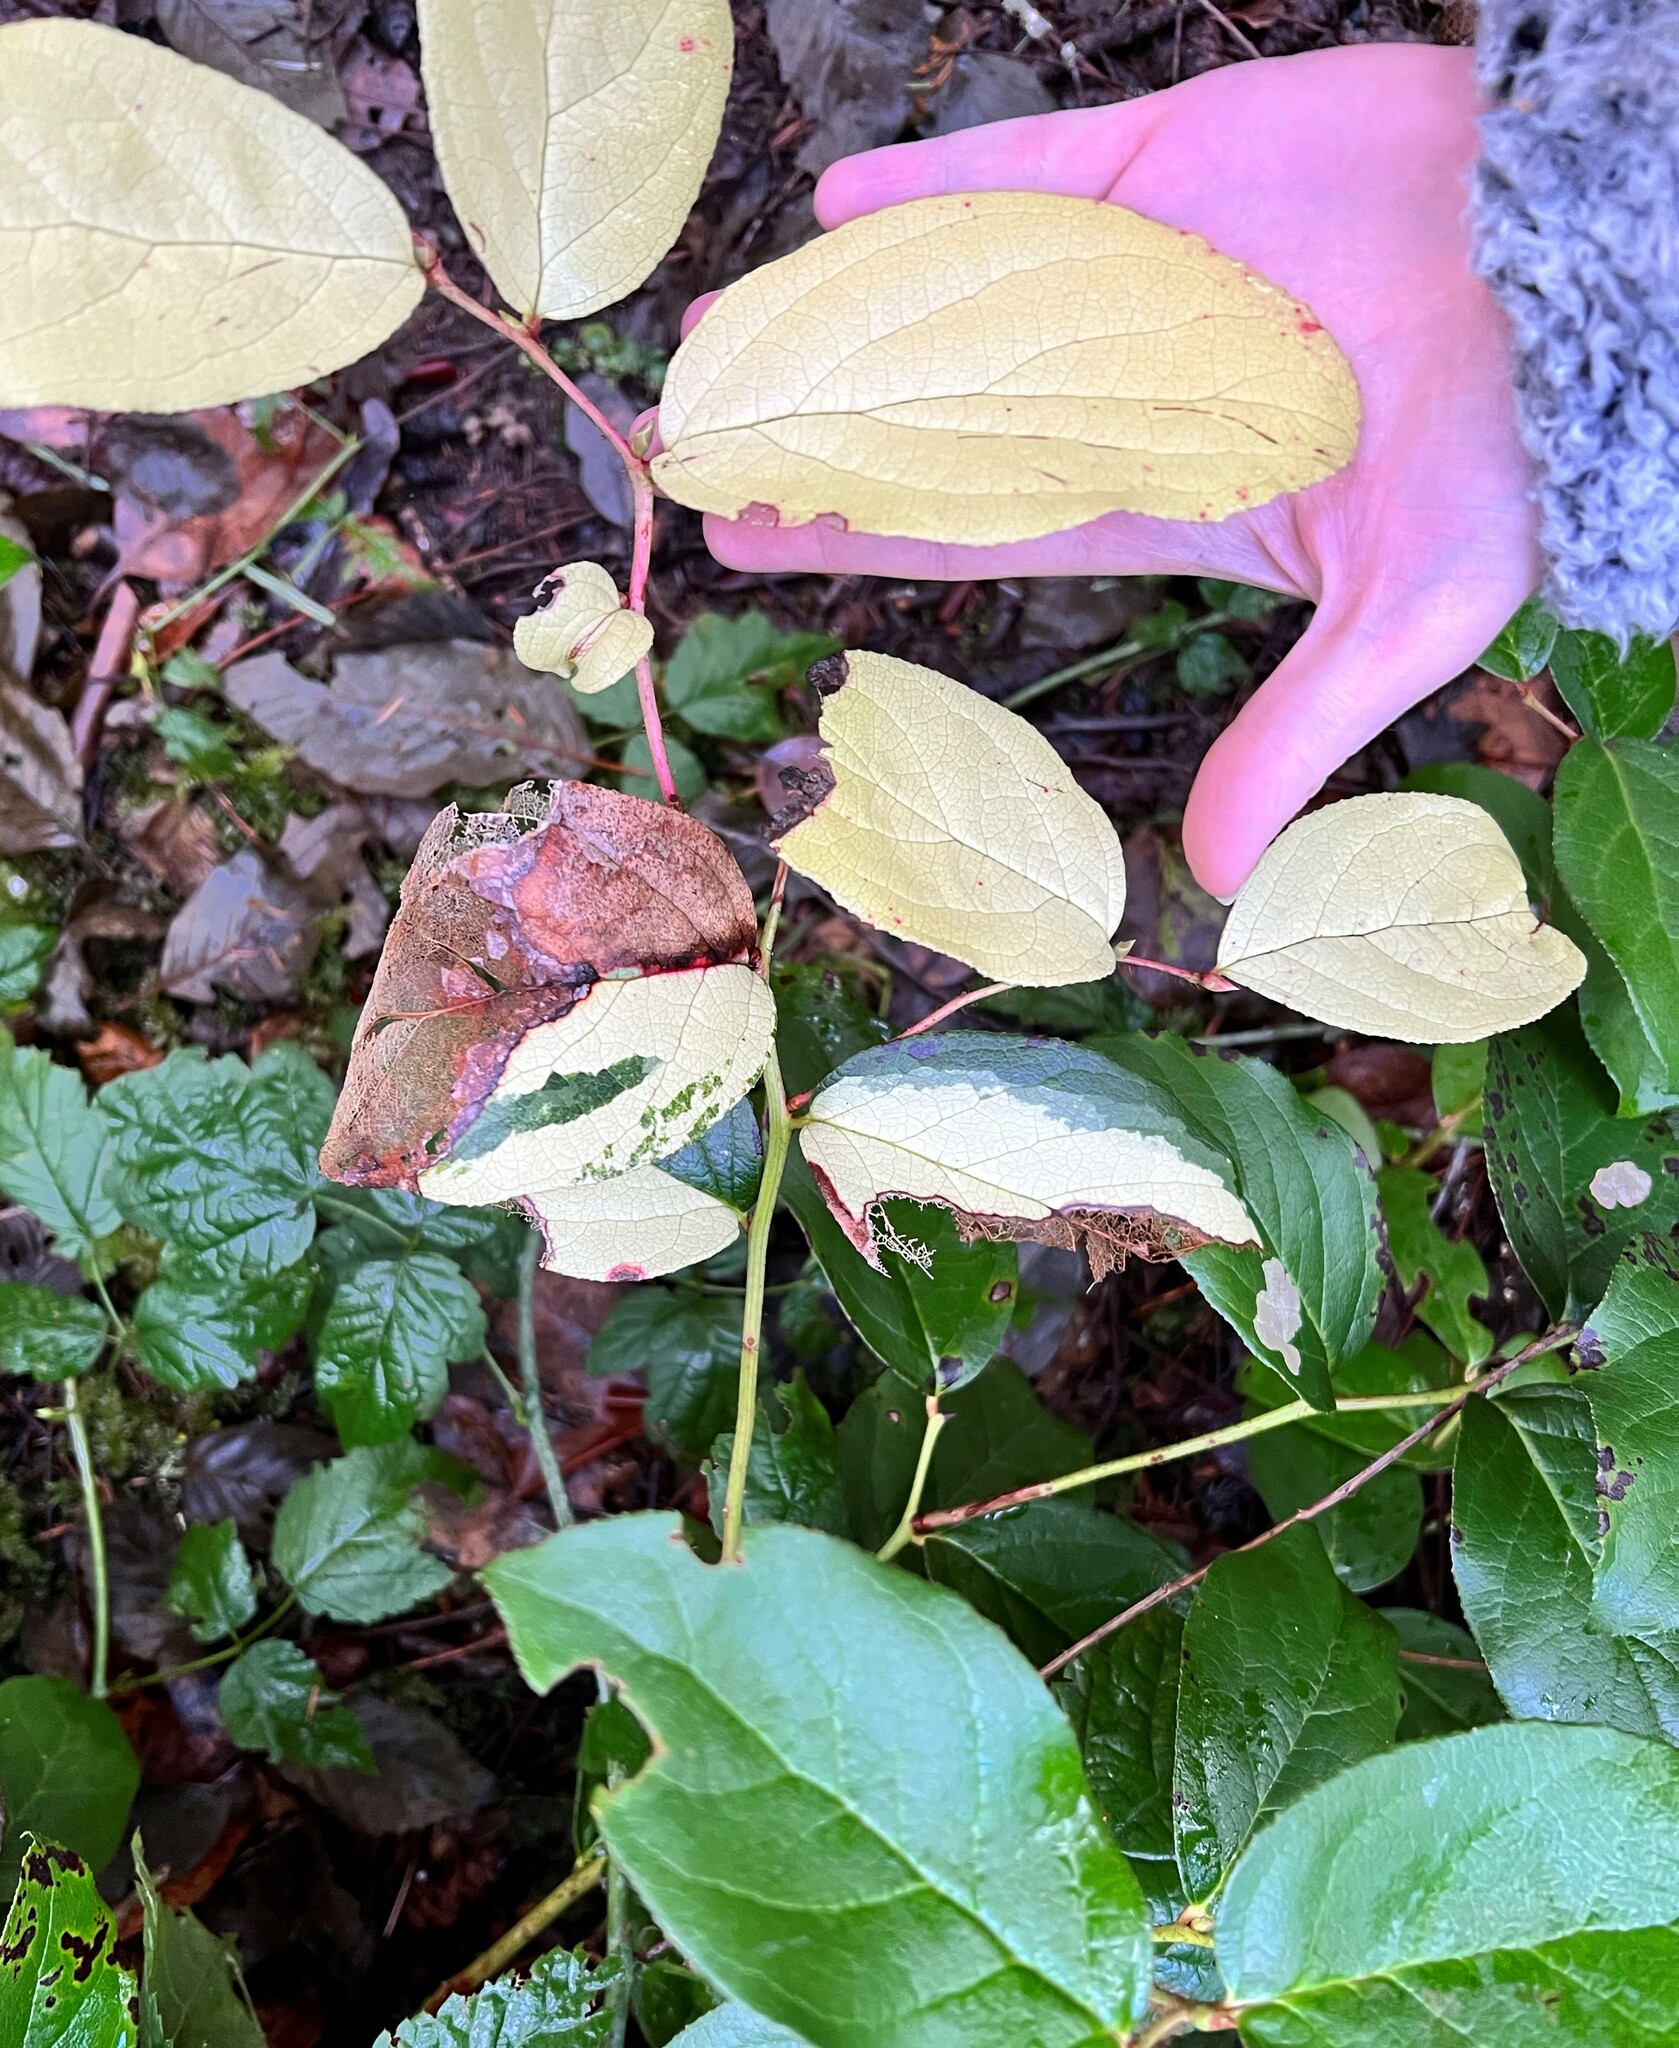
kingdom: Plantae
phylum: Tracheophyta
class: Magnoliopsida
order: Ericales
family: Ericaceae
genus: Gaultheria
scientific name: Gaultheria shallon
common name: Shallon
